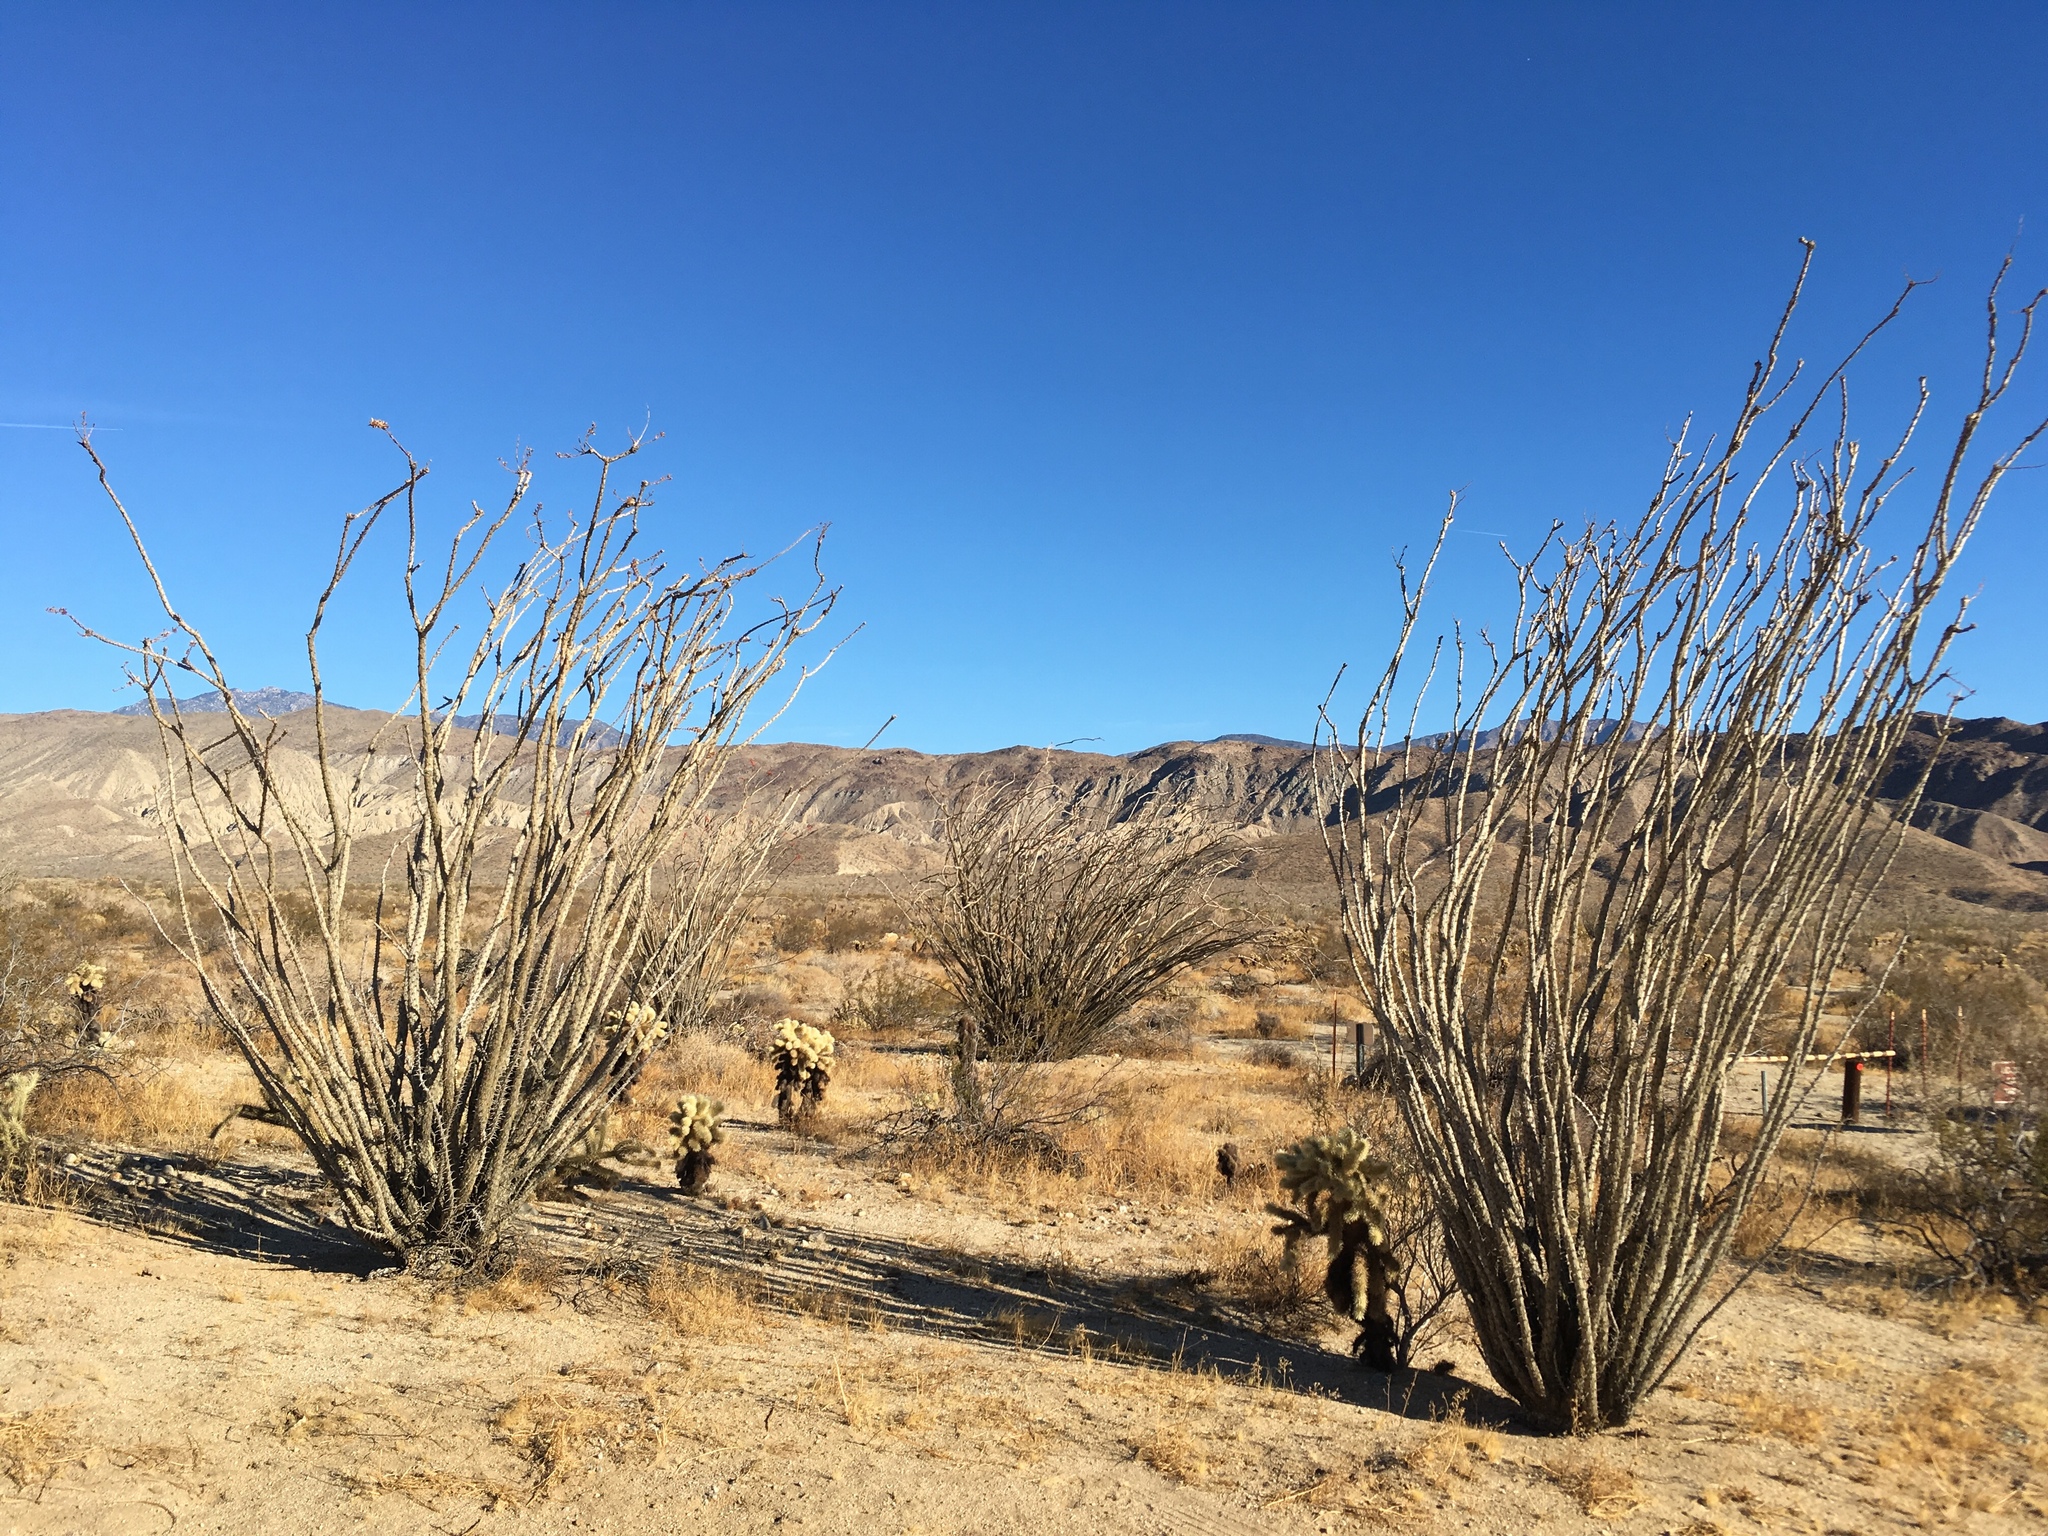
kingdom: Plantae
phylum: Tracheophyta
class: Magnoliopsida
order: Ericales
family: Fouquieriaceae
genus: Fouquieria
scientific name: Fouquieria splendens
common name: Vine-cactus
